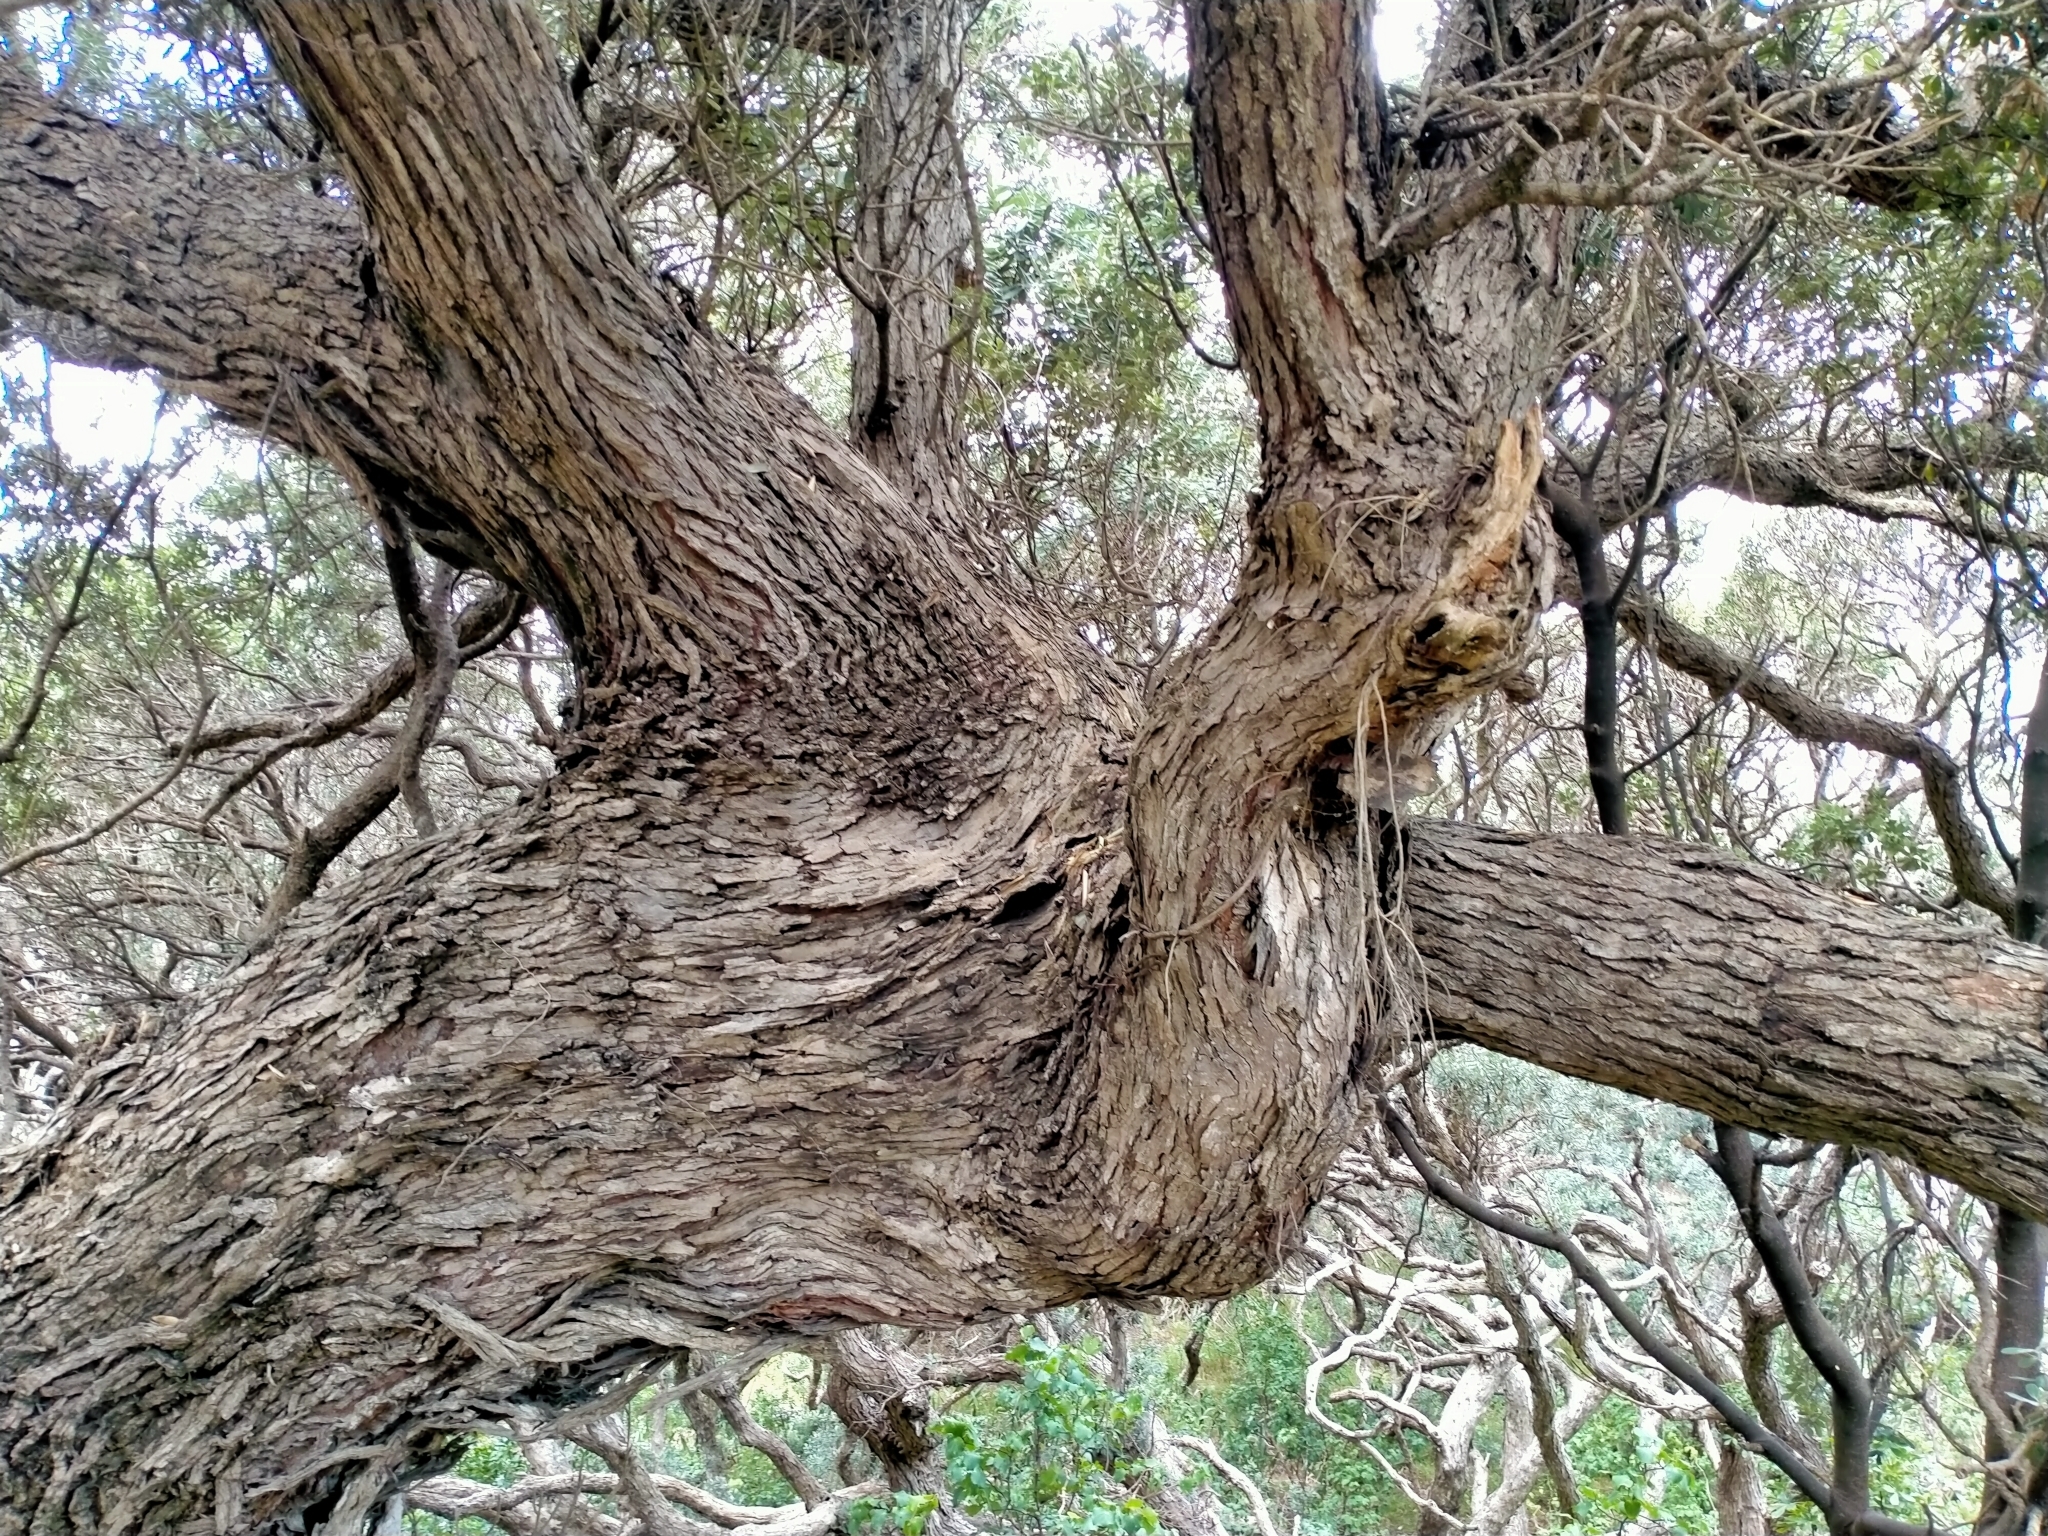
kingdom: Plantae
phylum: Tracheophyta
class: Magnoliopsida
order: Myrtales
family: Myrtaceae
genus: Metrosideros
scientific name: Metrosideros excelsa
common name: New zealand christmastree
